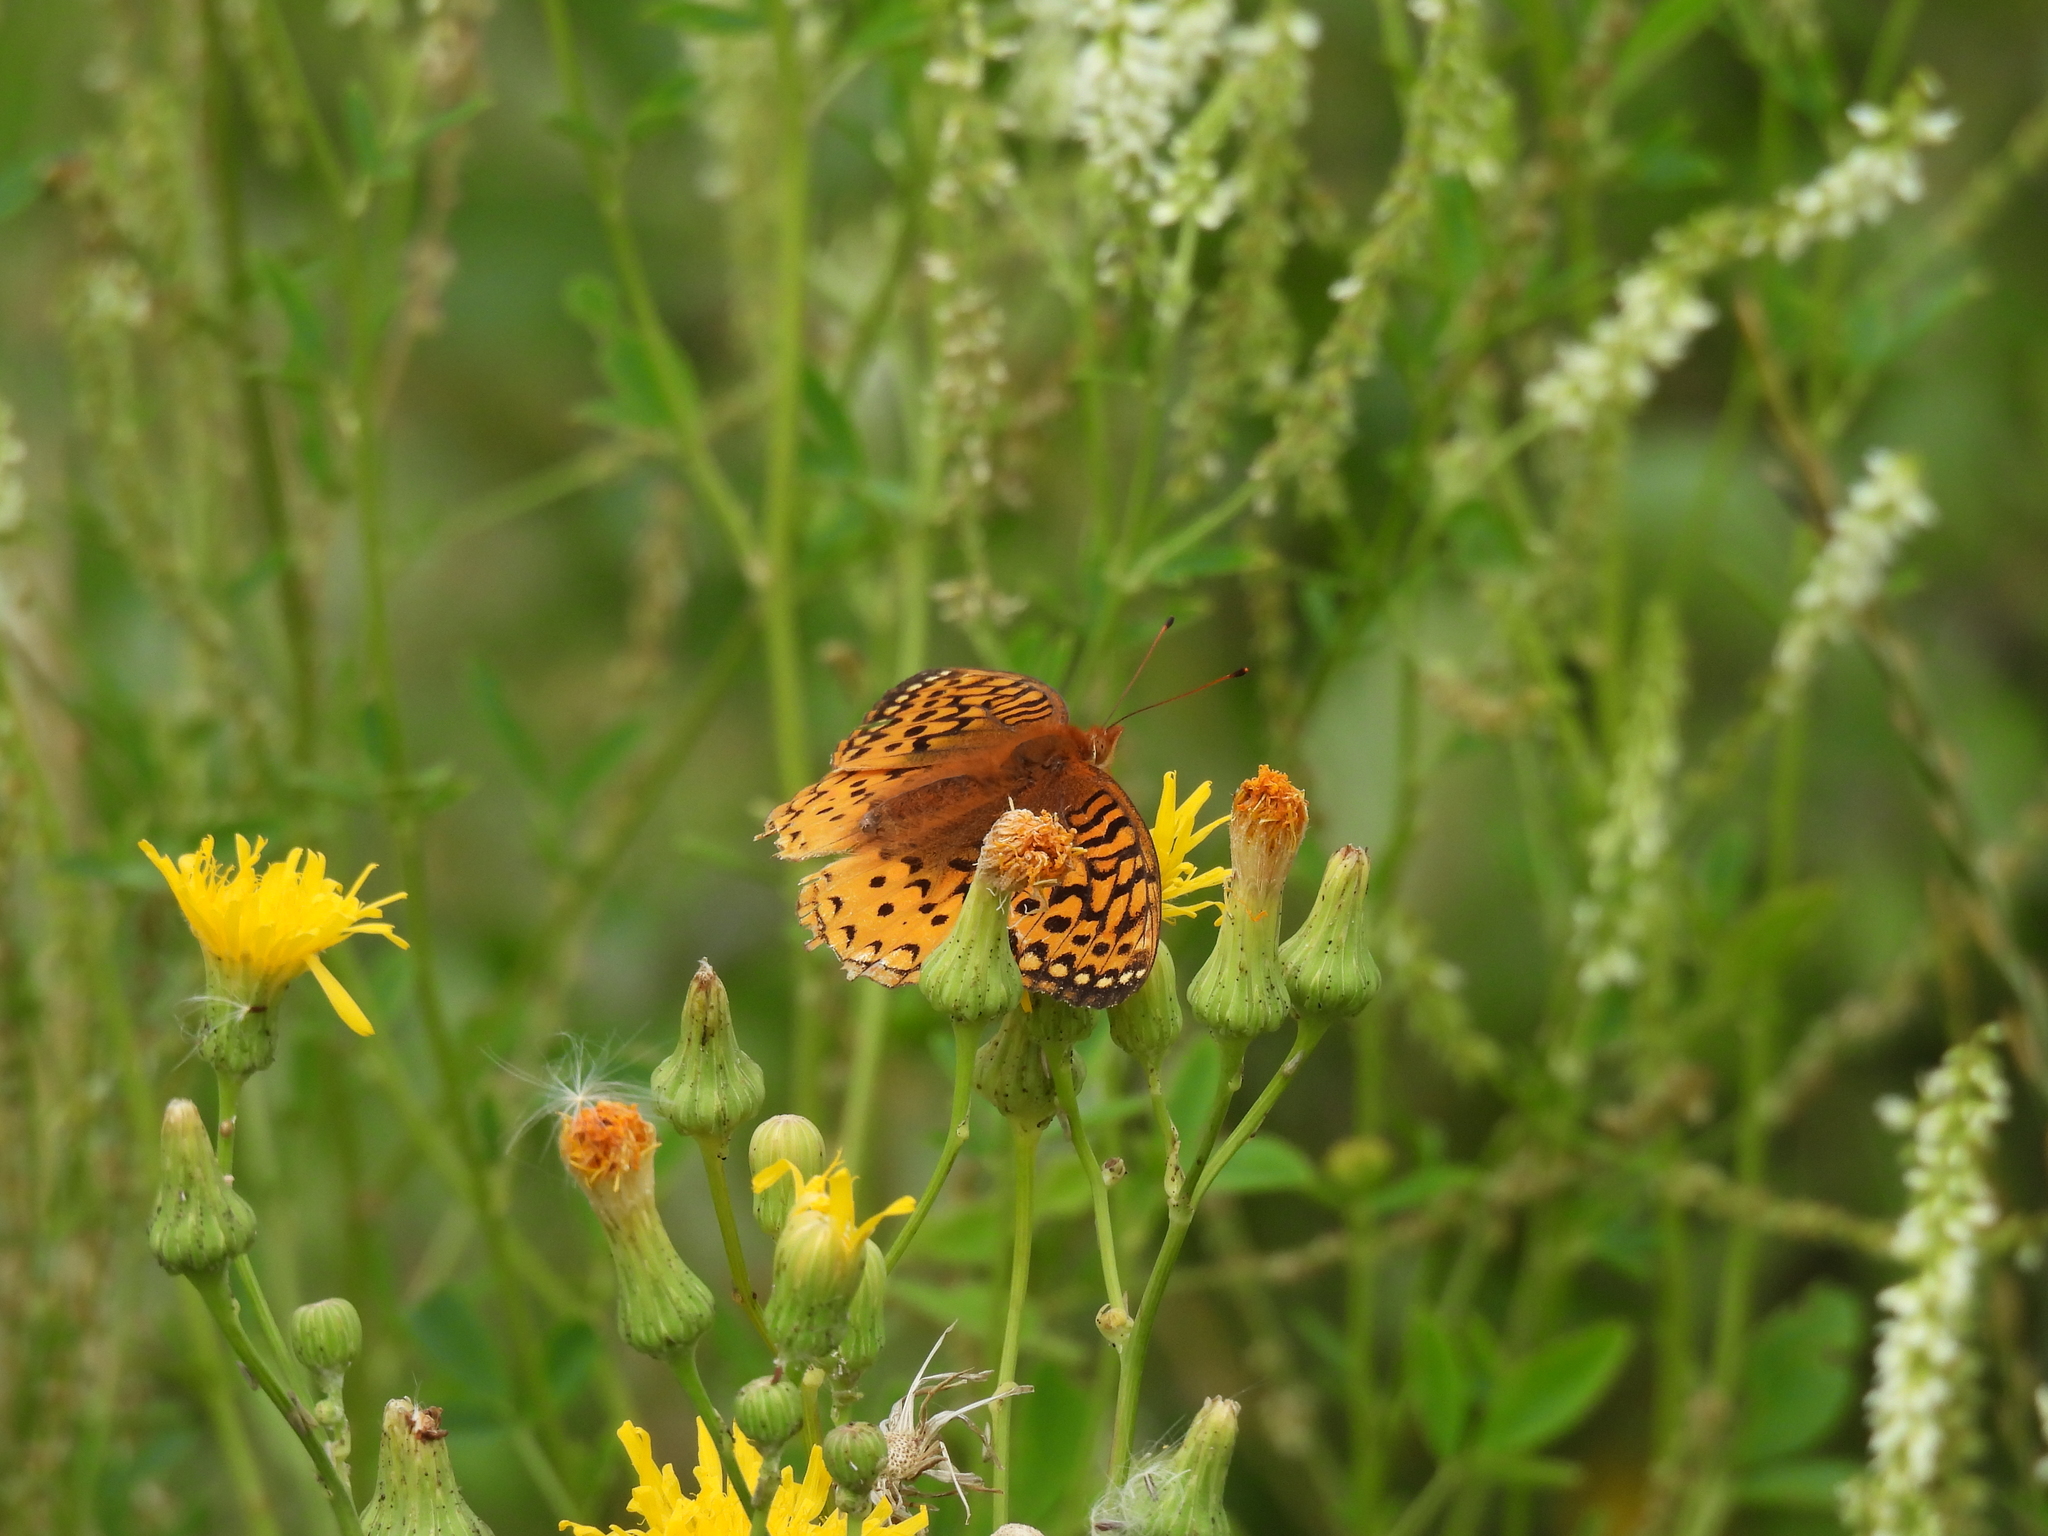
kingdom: Animalia
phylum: Arthropoda
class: Insecta
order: Lepidoptera
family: Nymphalidae
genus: Speyeria
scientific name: Speyeria cybele
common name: Great spangled fritillary
